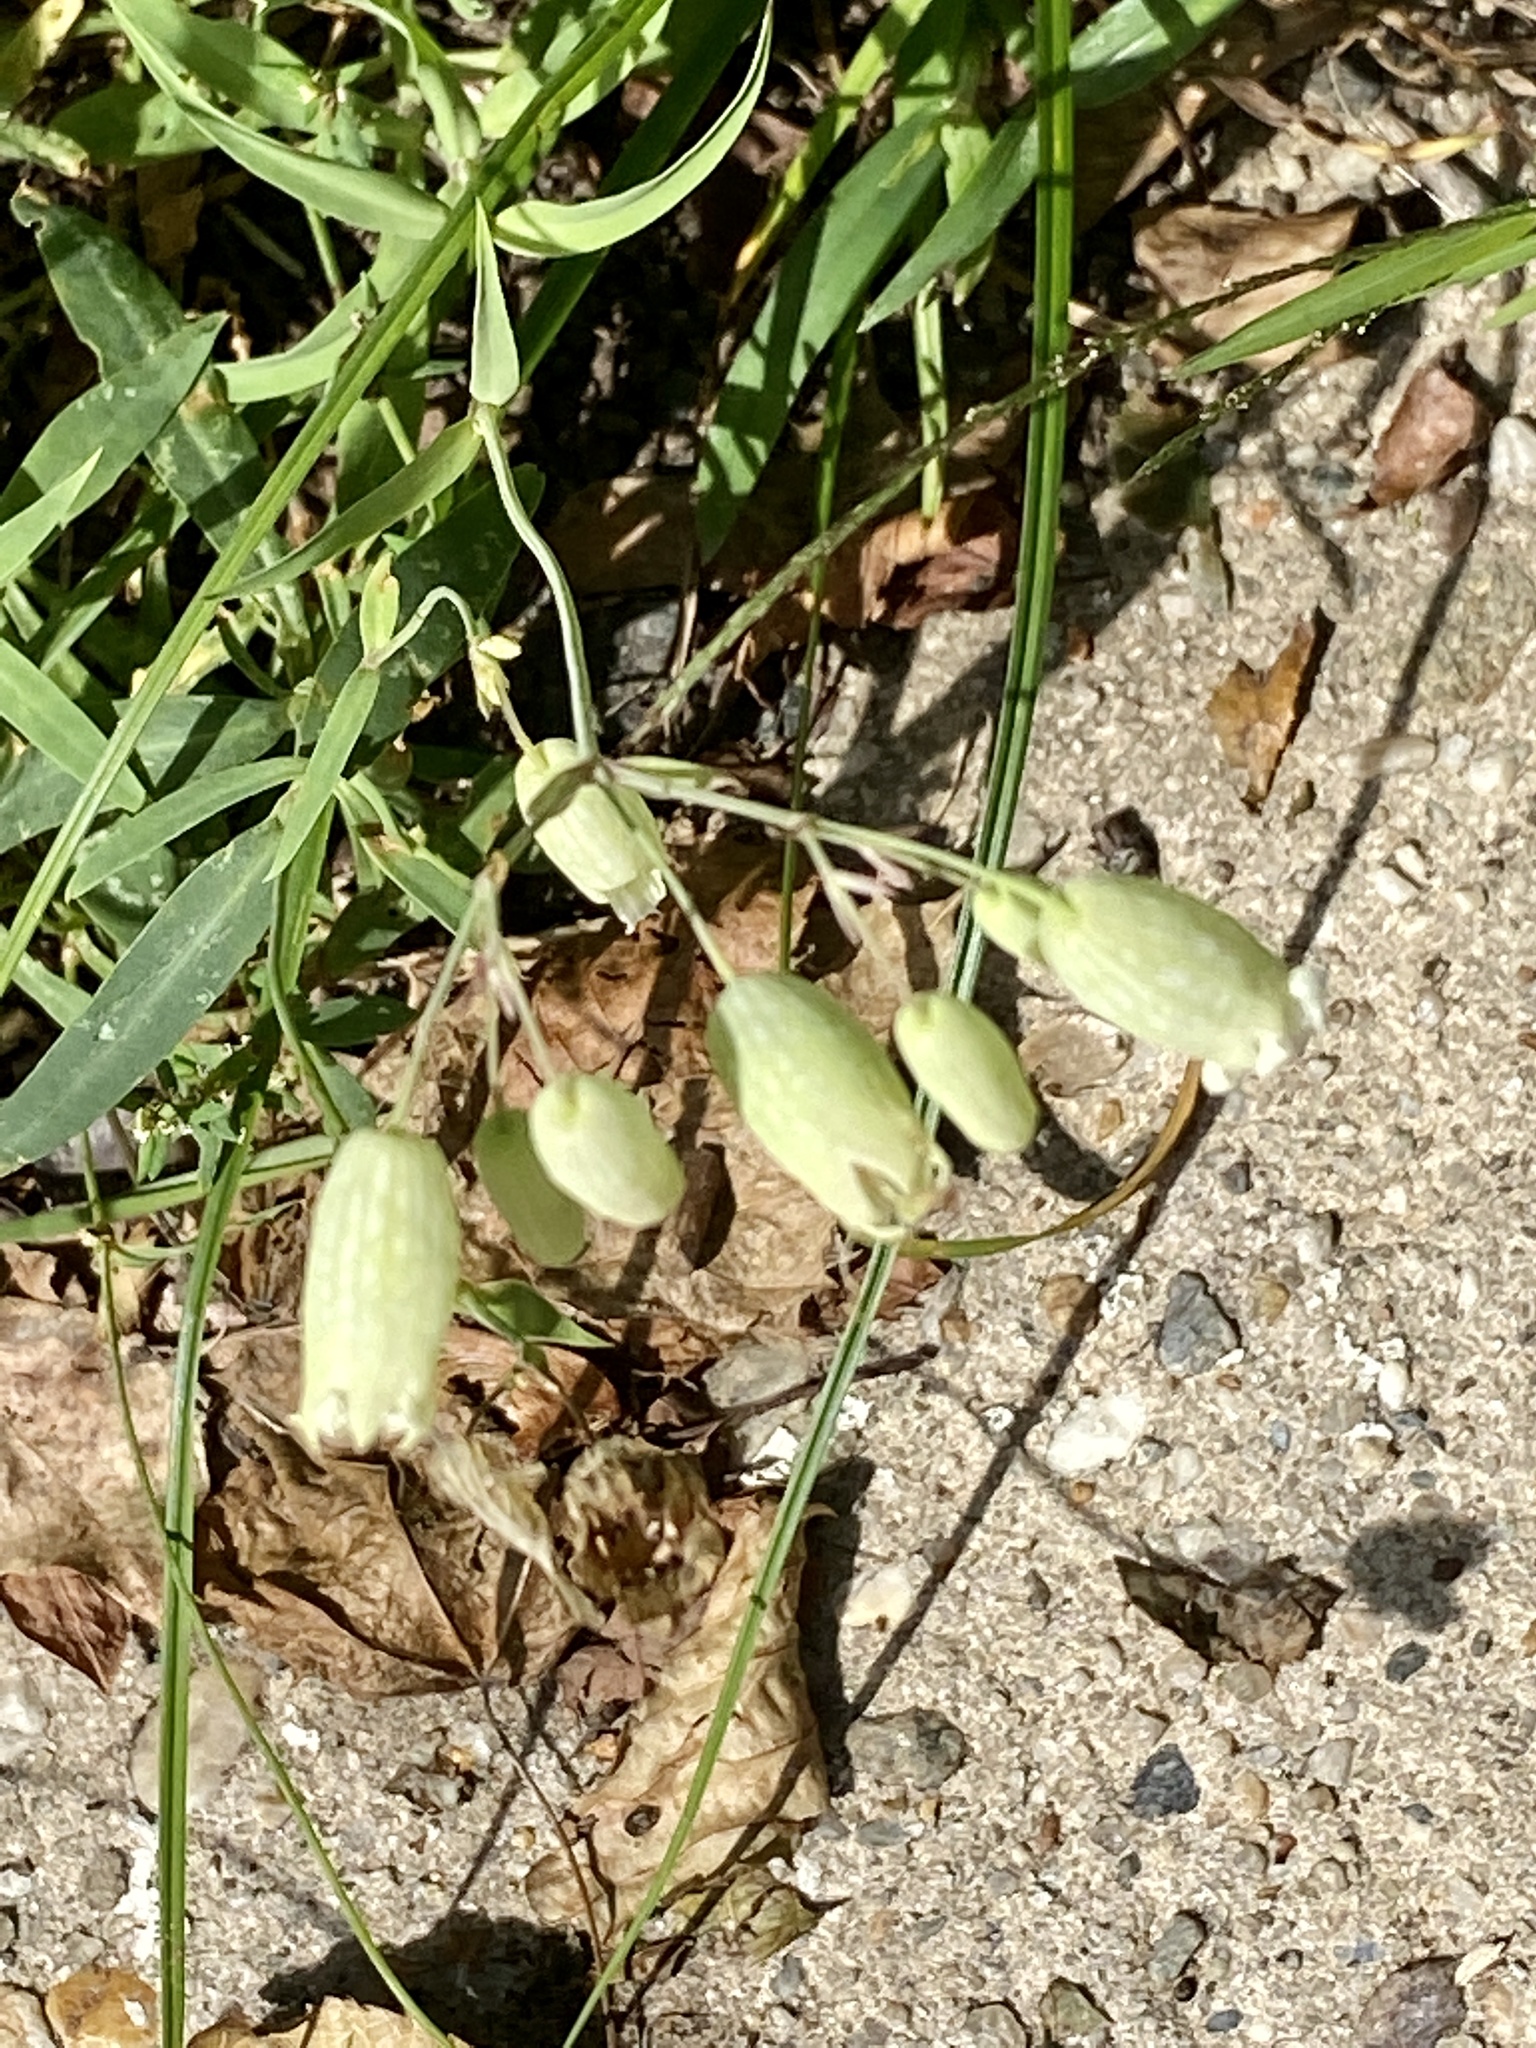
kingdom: Plantae
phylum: Tracheophyta
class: Magnoliopsida
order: Caryophyllales
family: Caryophyllaceae
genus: Silene
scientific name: Silene vulgaris
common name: Bladder campion
